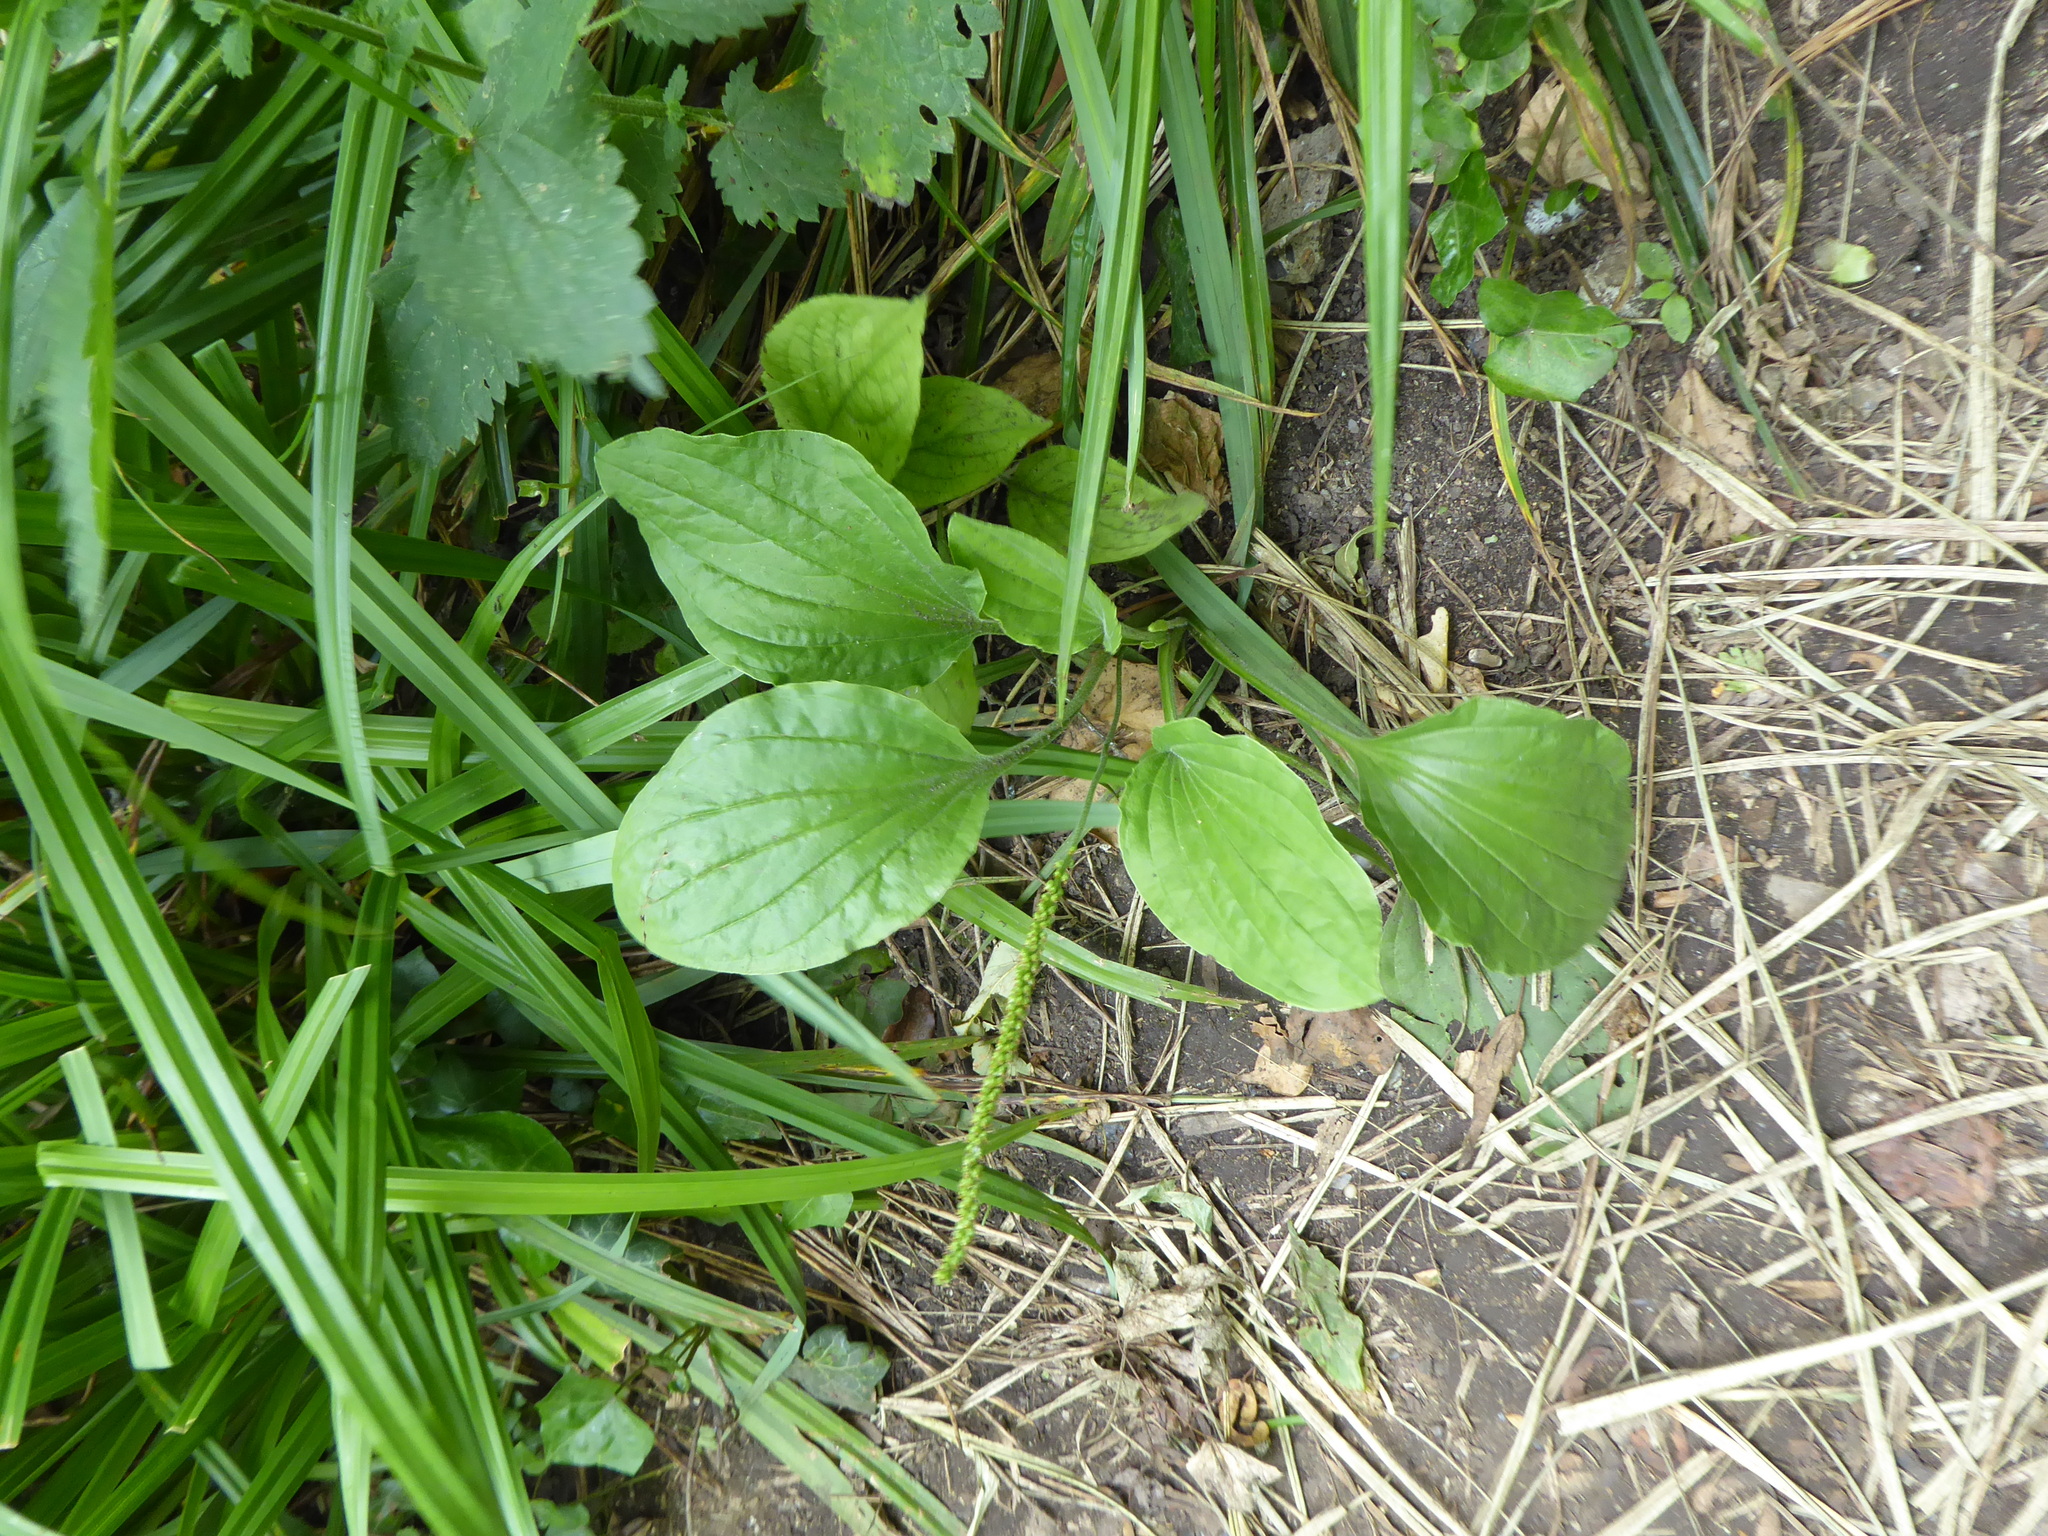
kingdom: Plantae
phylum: Tracheophyta
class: Magnoliopsida
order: Lamiales
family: Plantaginaceae
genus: Plantago
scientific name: Plantago major
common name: Common plantain
